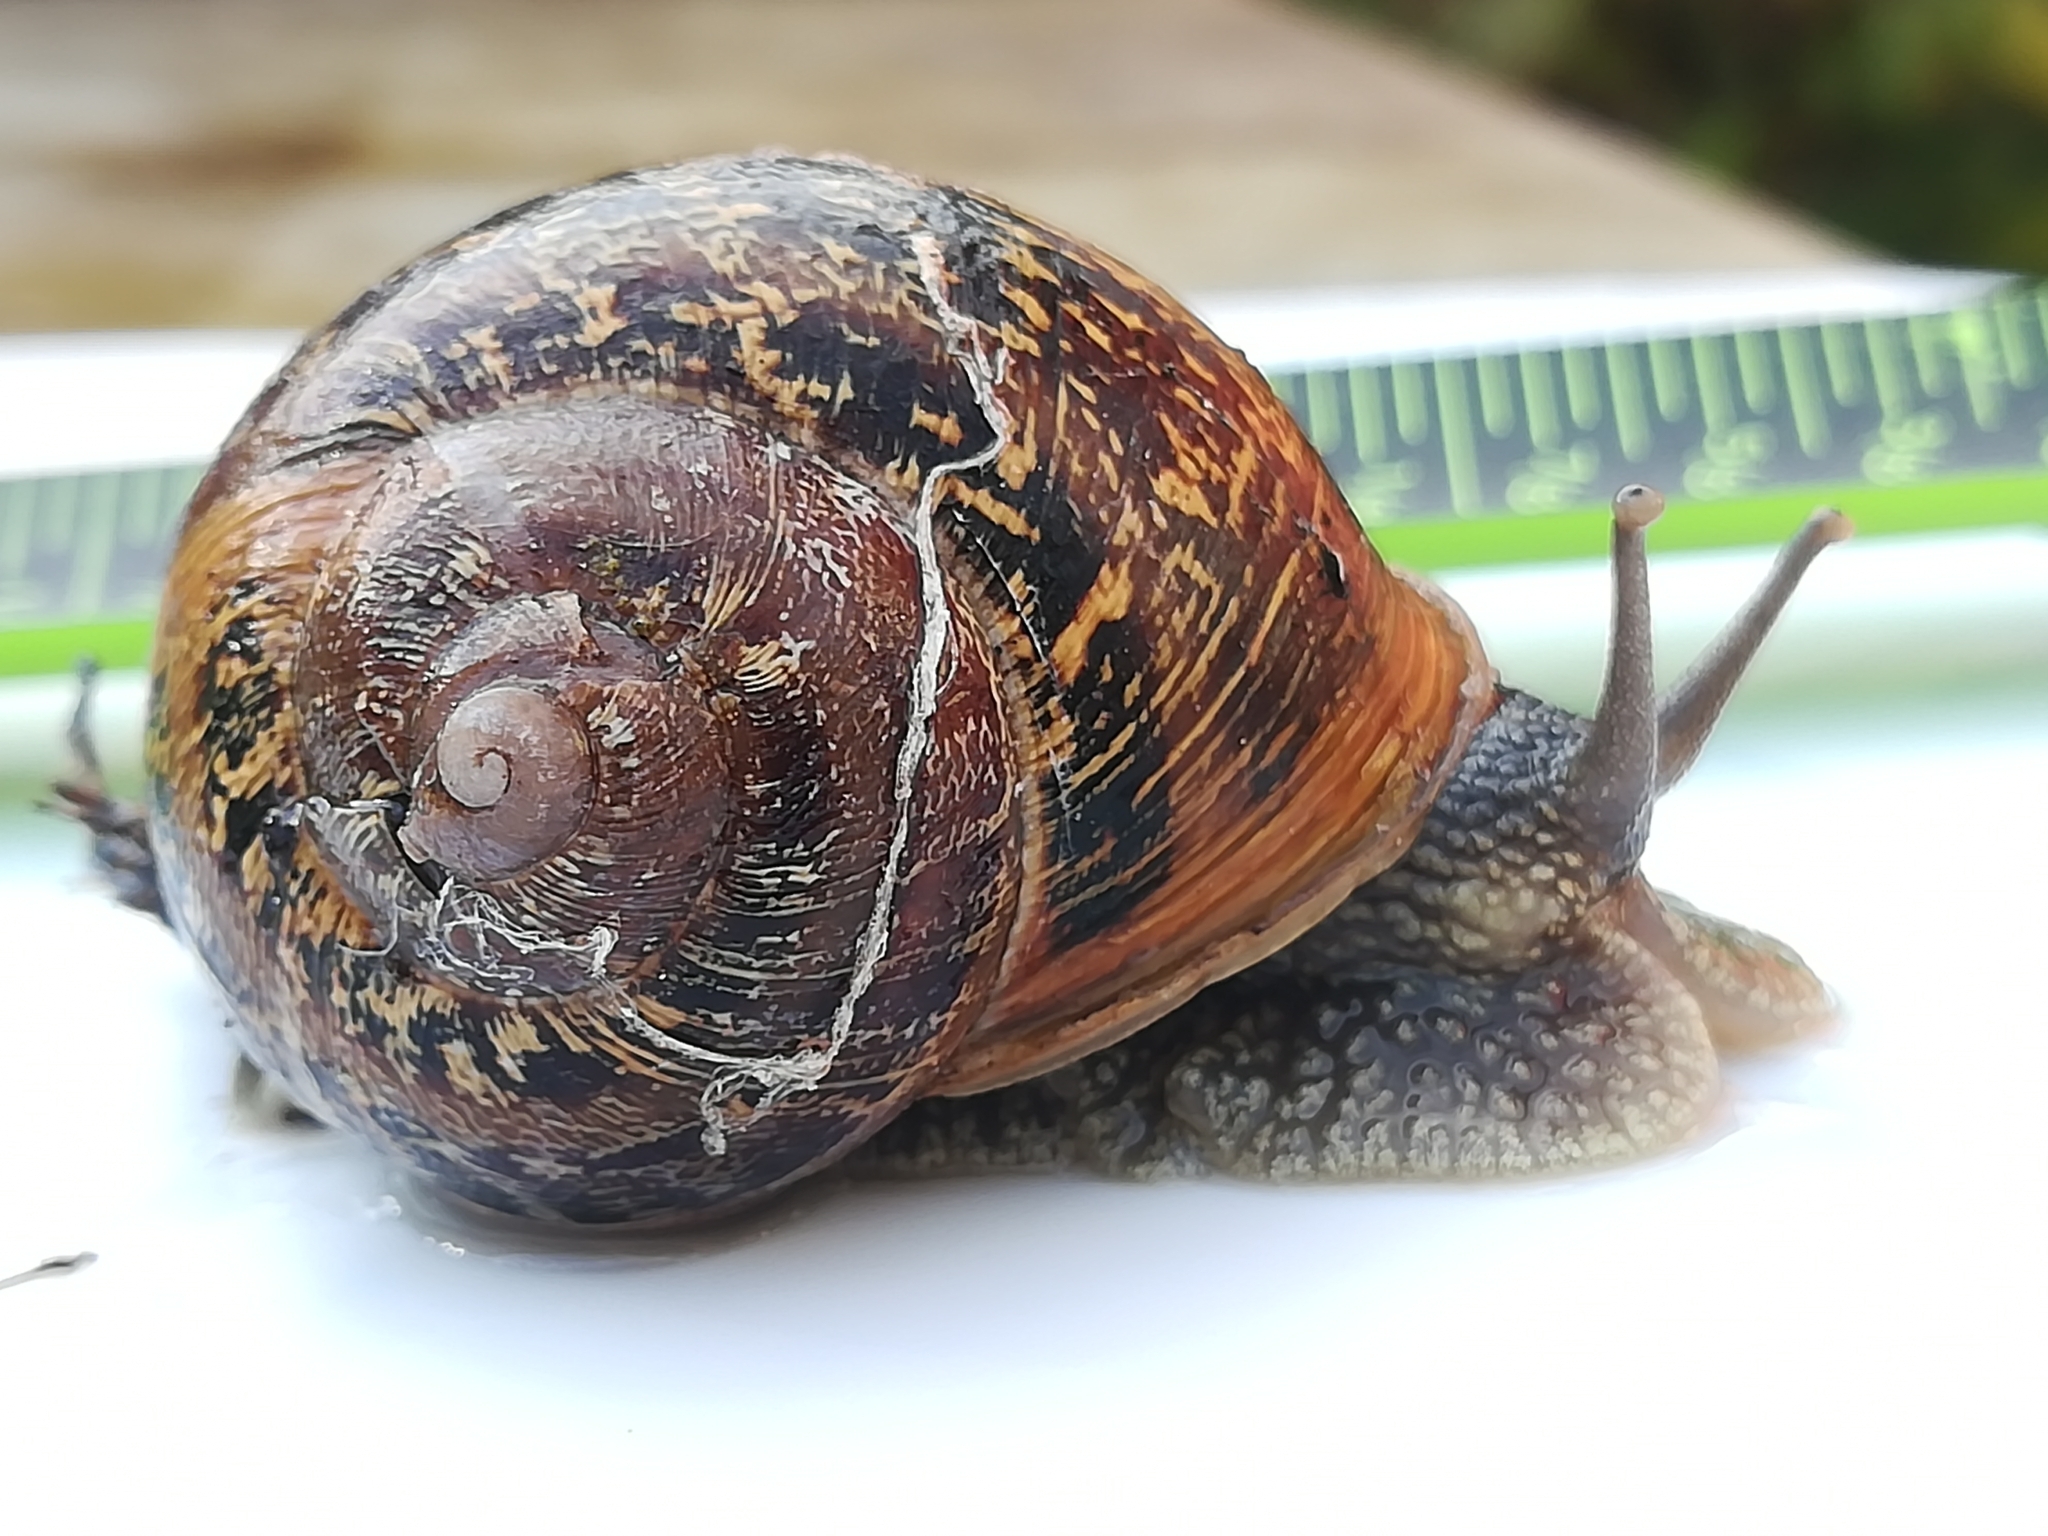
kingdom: Animalia
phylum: Mollusca
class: Gastropoda
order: Stylommatophora
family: Helicidae
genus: Cornu
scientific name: Cornu aspersum
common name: Brown garden snail
